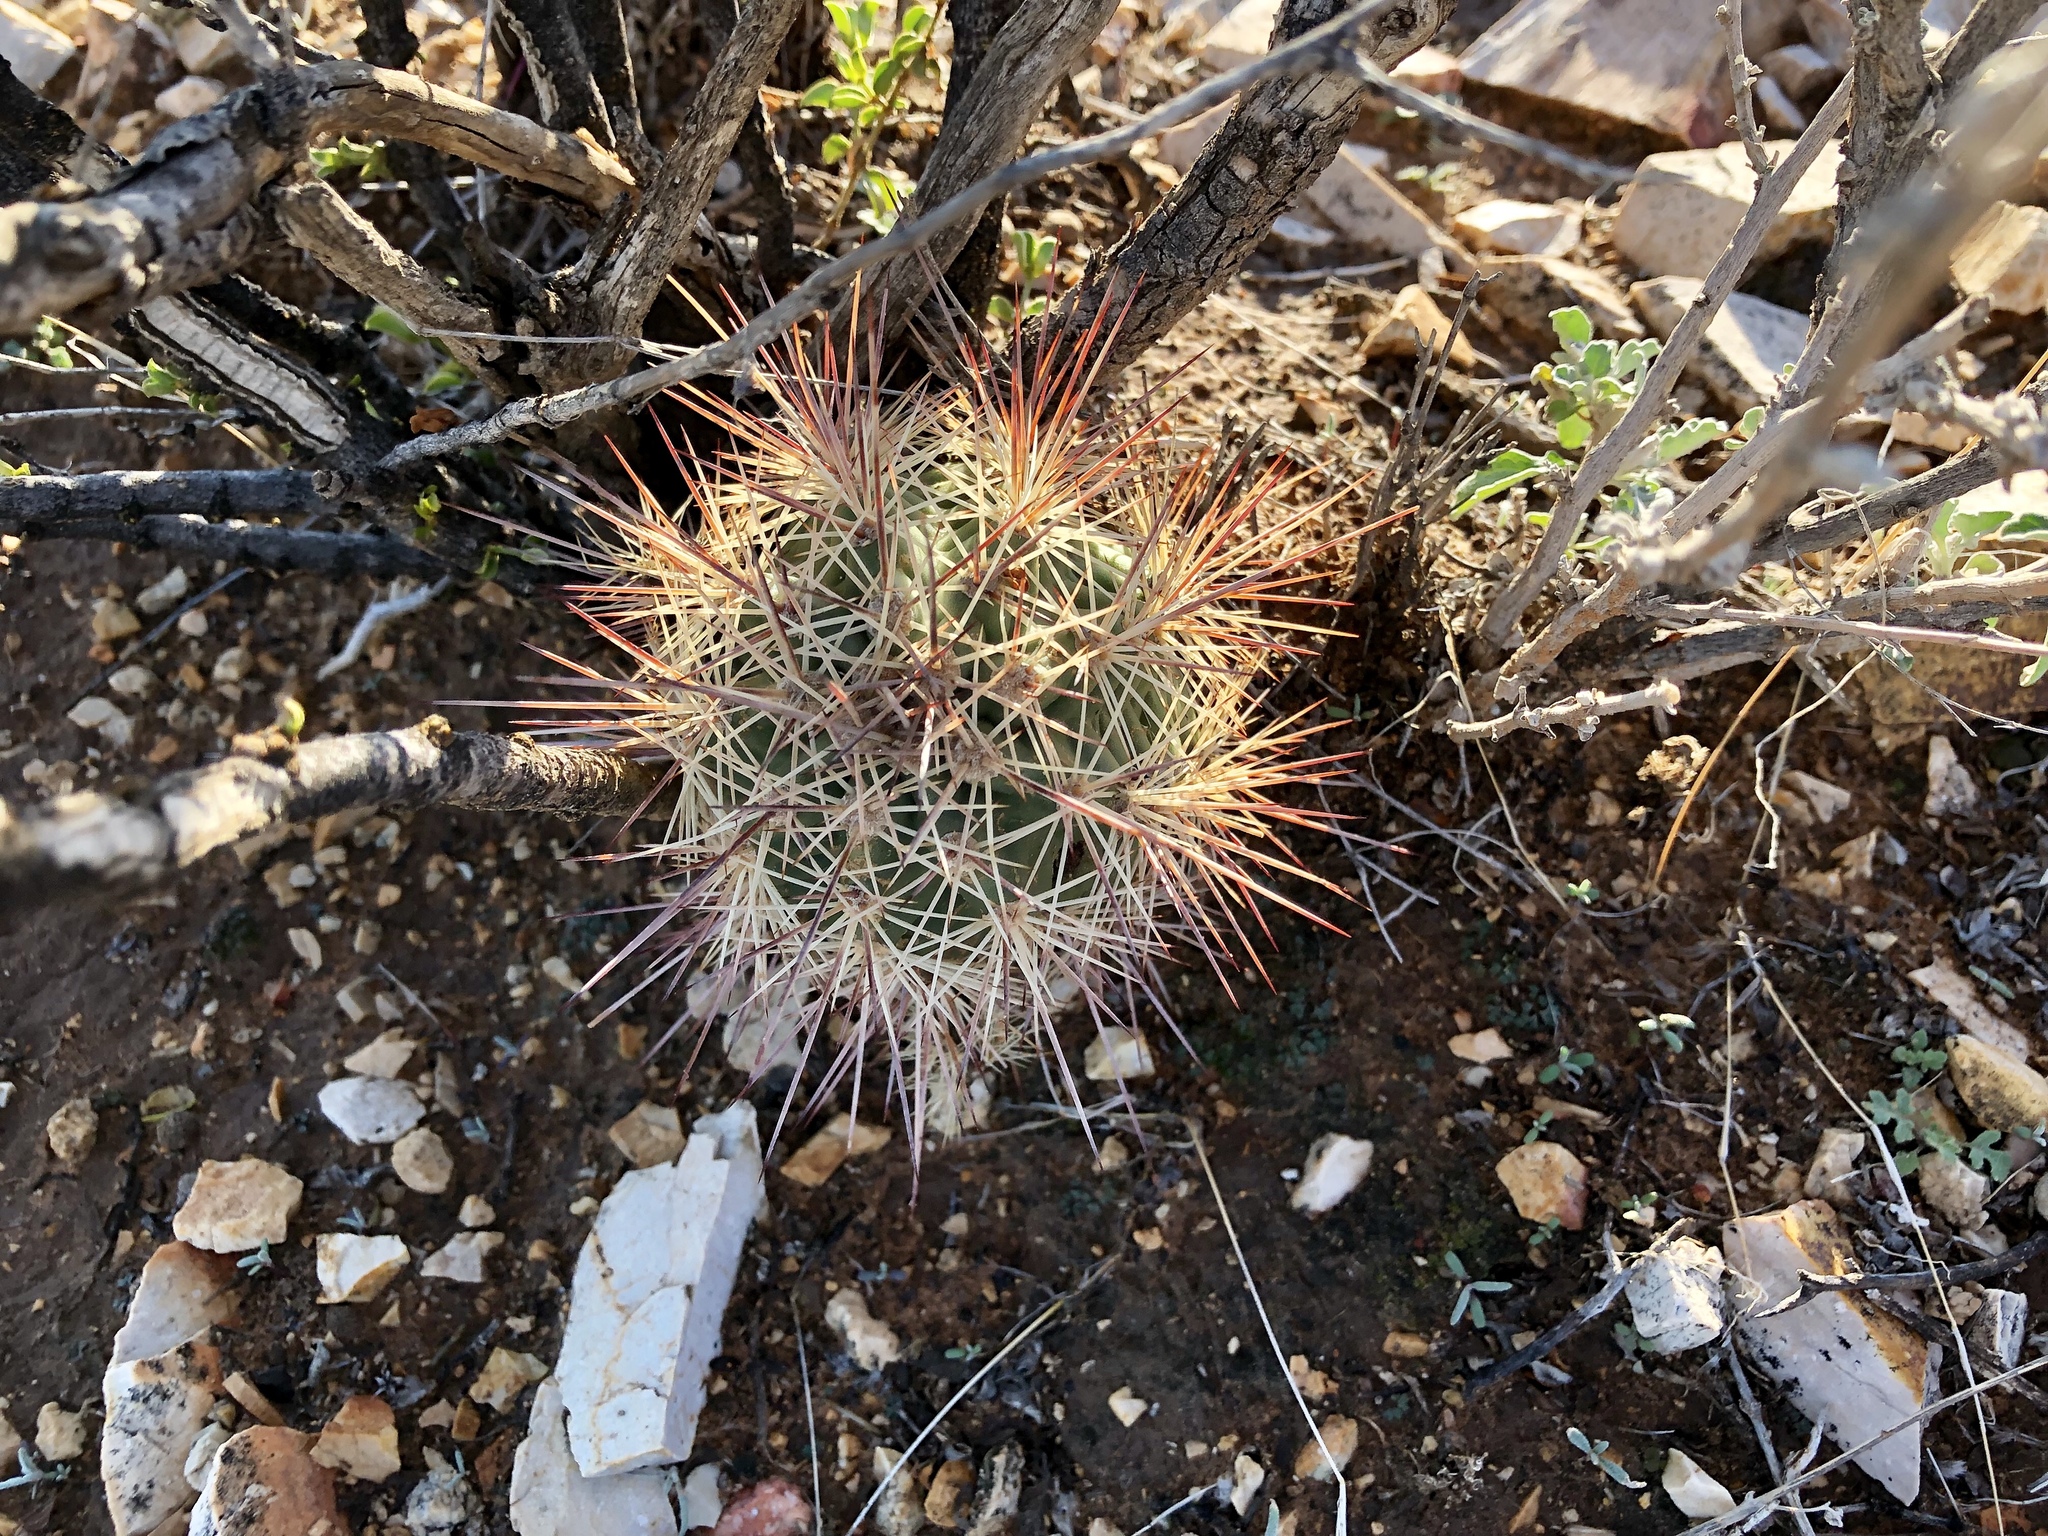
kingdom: Plantae
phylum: Tracheophyta
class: Magnoliopsida
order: Caryophyllales
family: Cactaceae
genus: Echinocereus
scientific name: Echinocereus coccineus
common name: Scarlet hedgehog cactus
